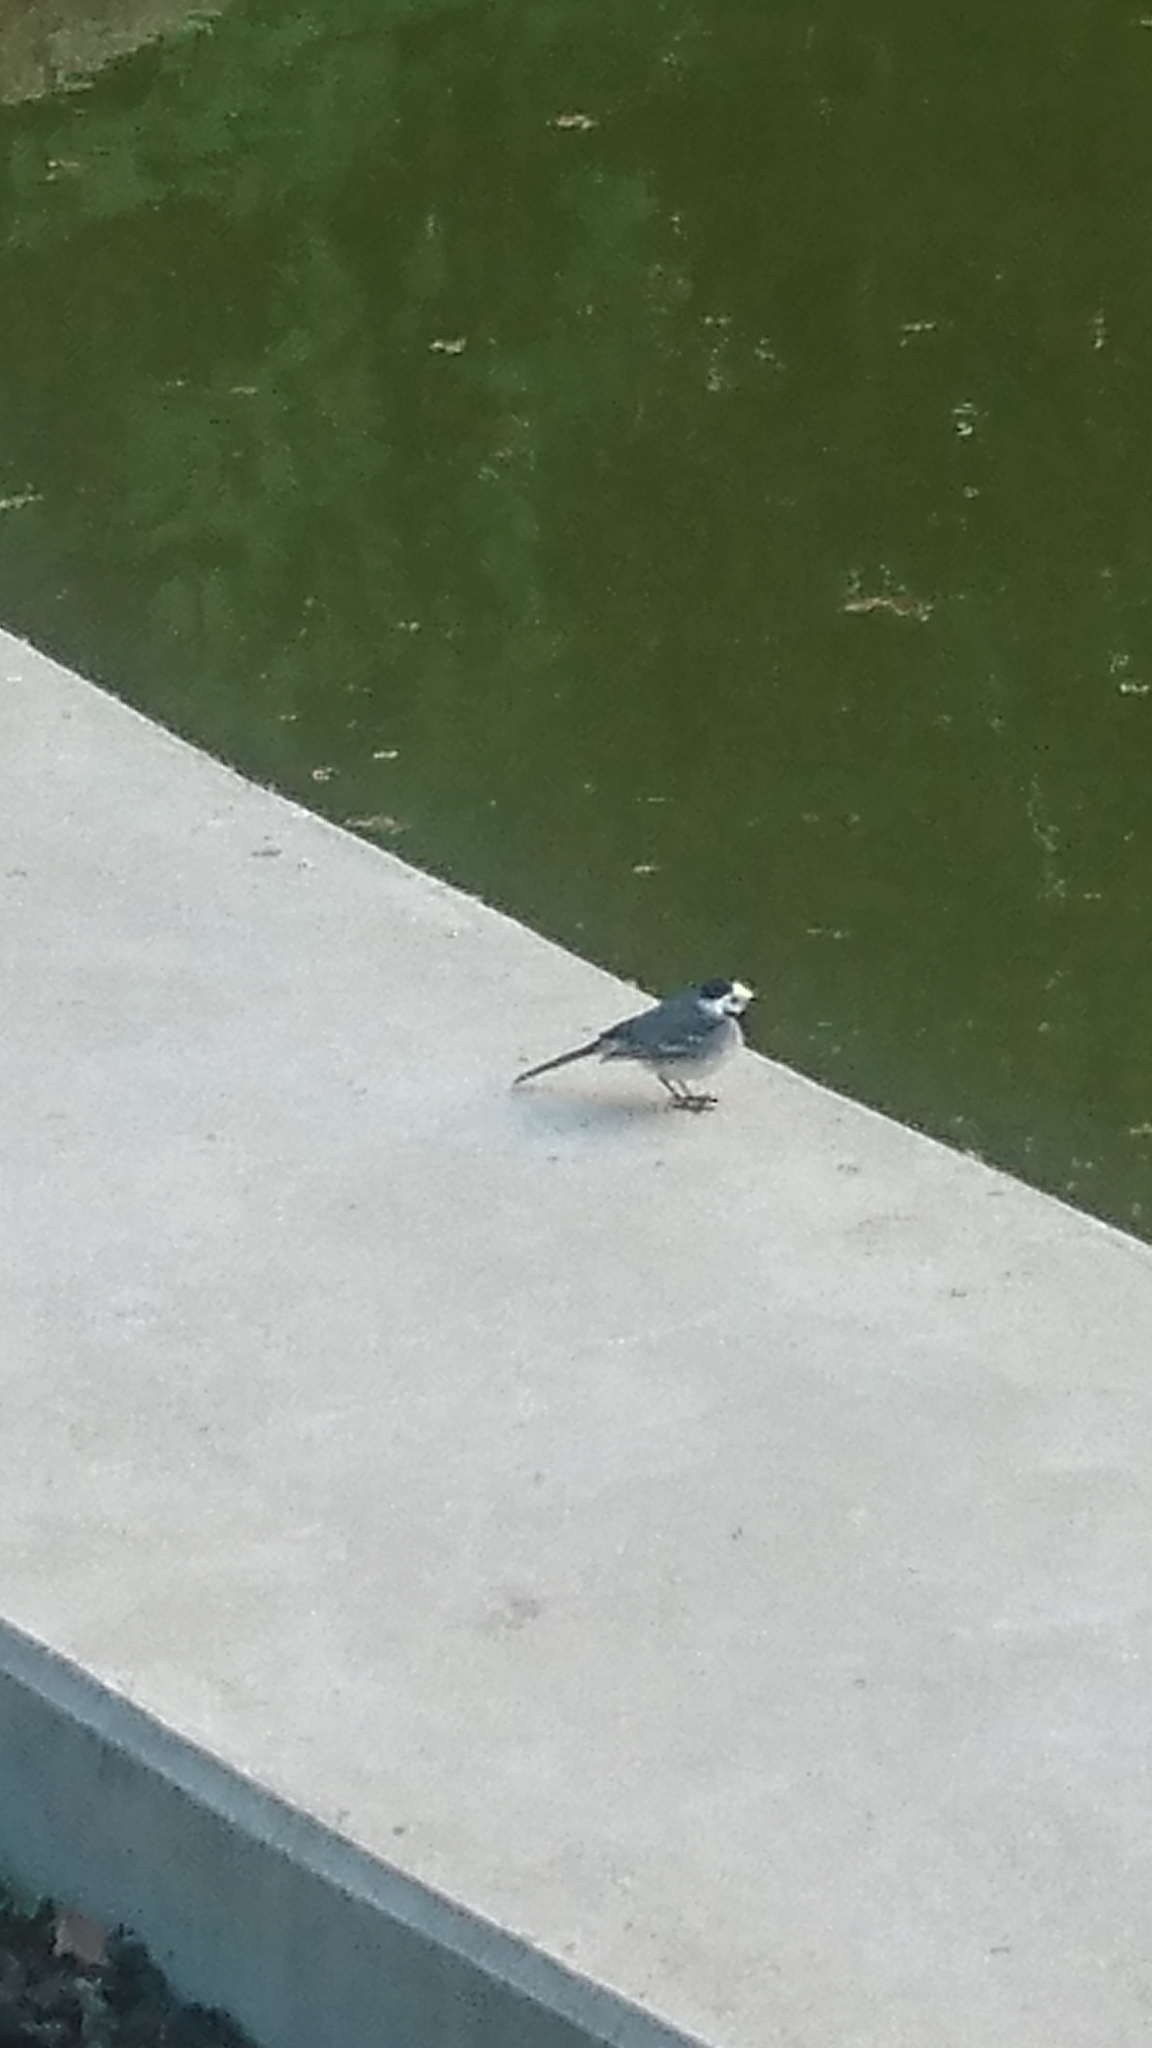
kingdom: Animalia
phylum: Chordata
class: Aves
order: Passeriformes
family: Motacillidae
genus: Motacilla
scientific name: Motacilla alba
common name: White wagtail
